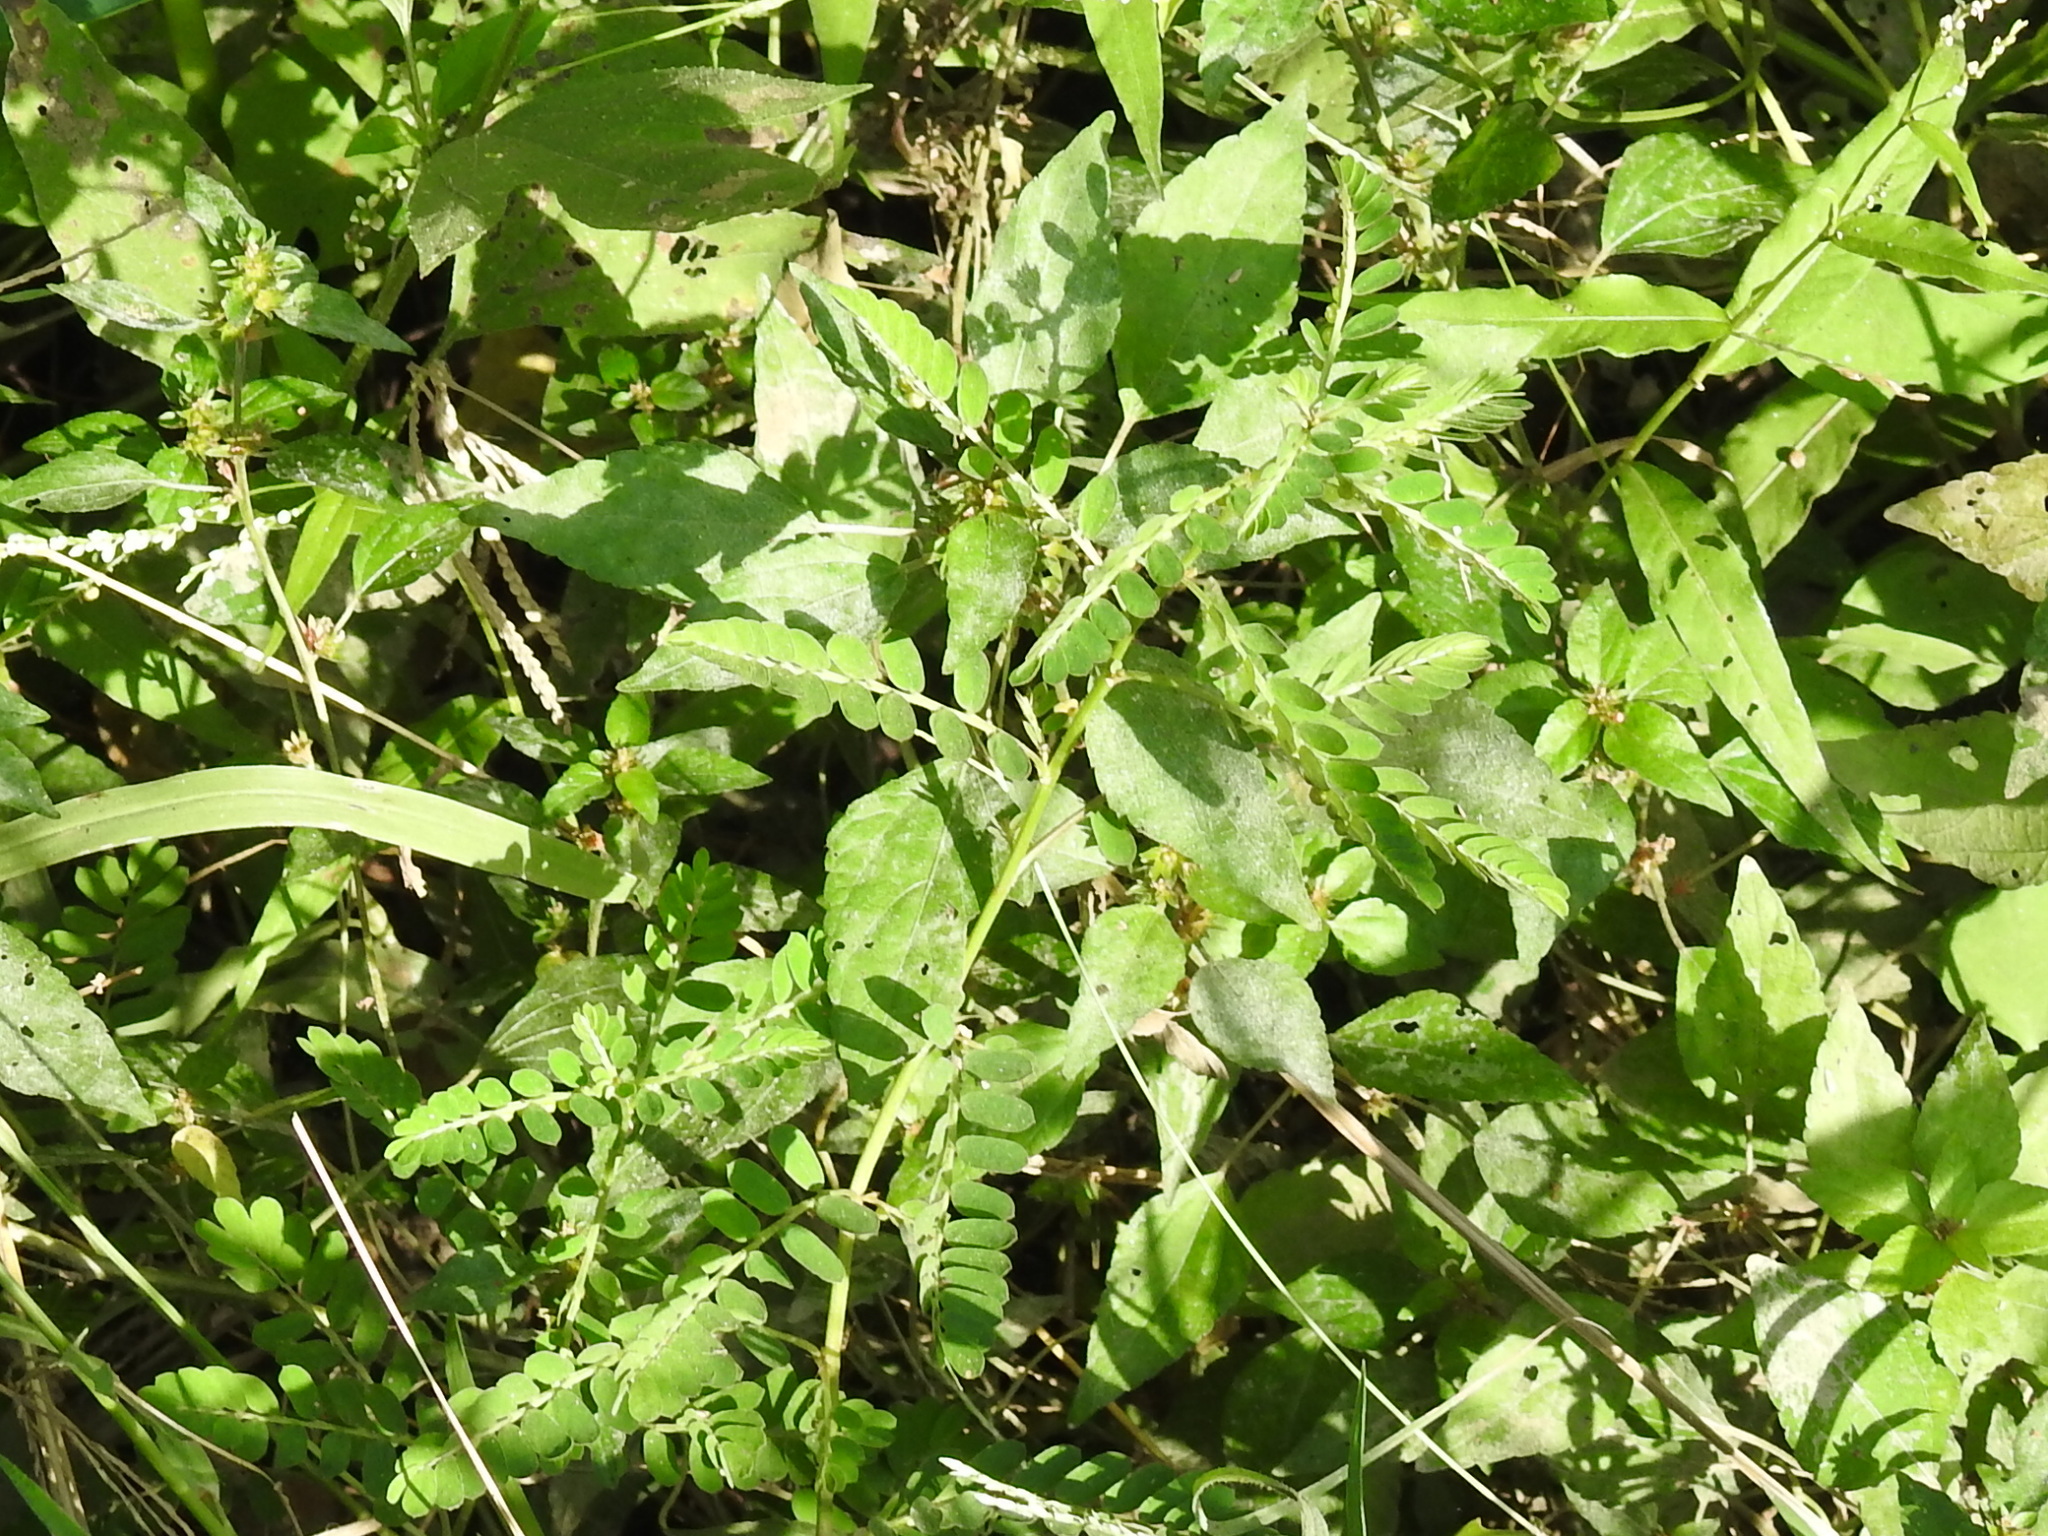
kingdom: Plantae
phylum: Tracheophyta
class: Magnoliopsida
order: Malpighiales
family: Phyllanthaceae
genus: Phyllanthus
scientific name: Phyllanthus urinaria
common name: Chamber bitter
